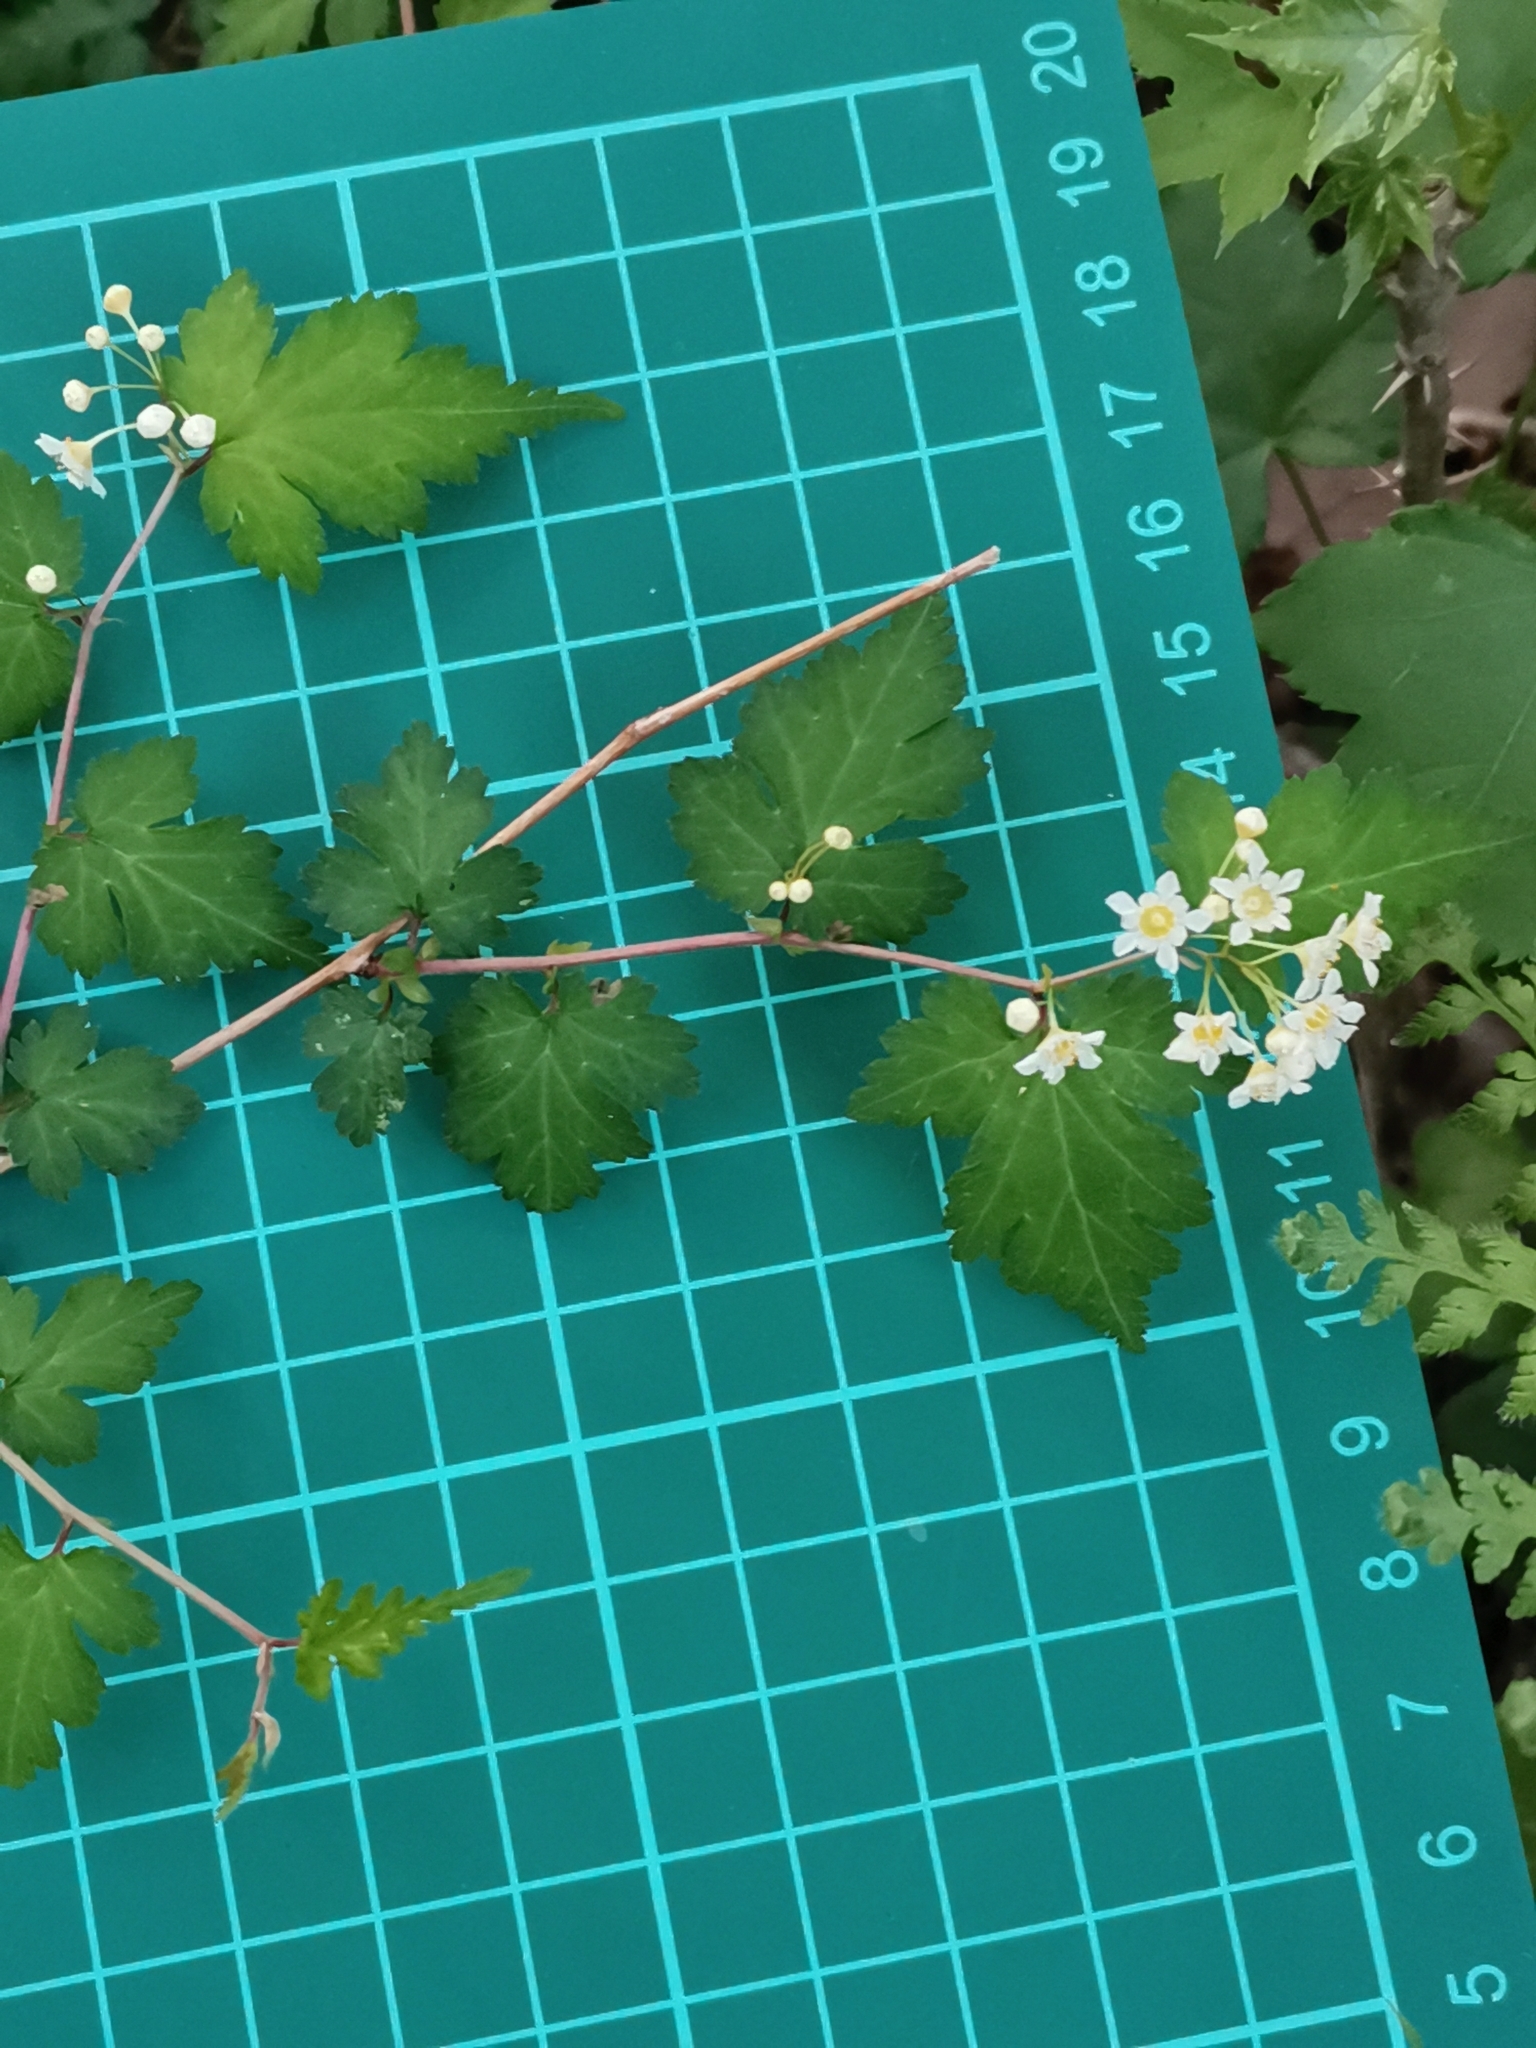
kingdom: Plantae
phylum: Tracheophyta
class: Magnoliopsida
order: Rosales
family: Rosaceae
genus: Neillia
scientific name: Neillia incisa
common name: Laceshrub
